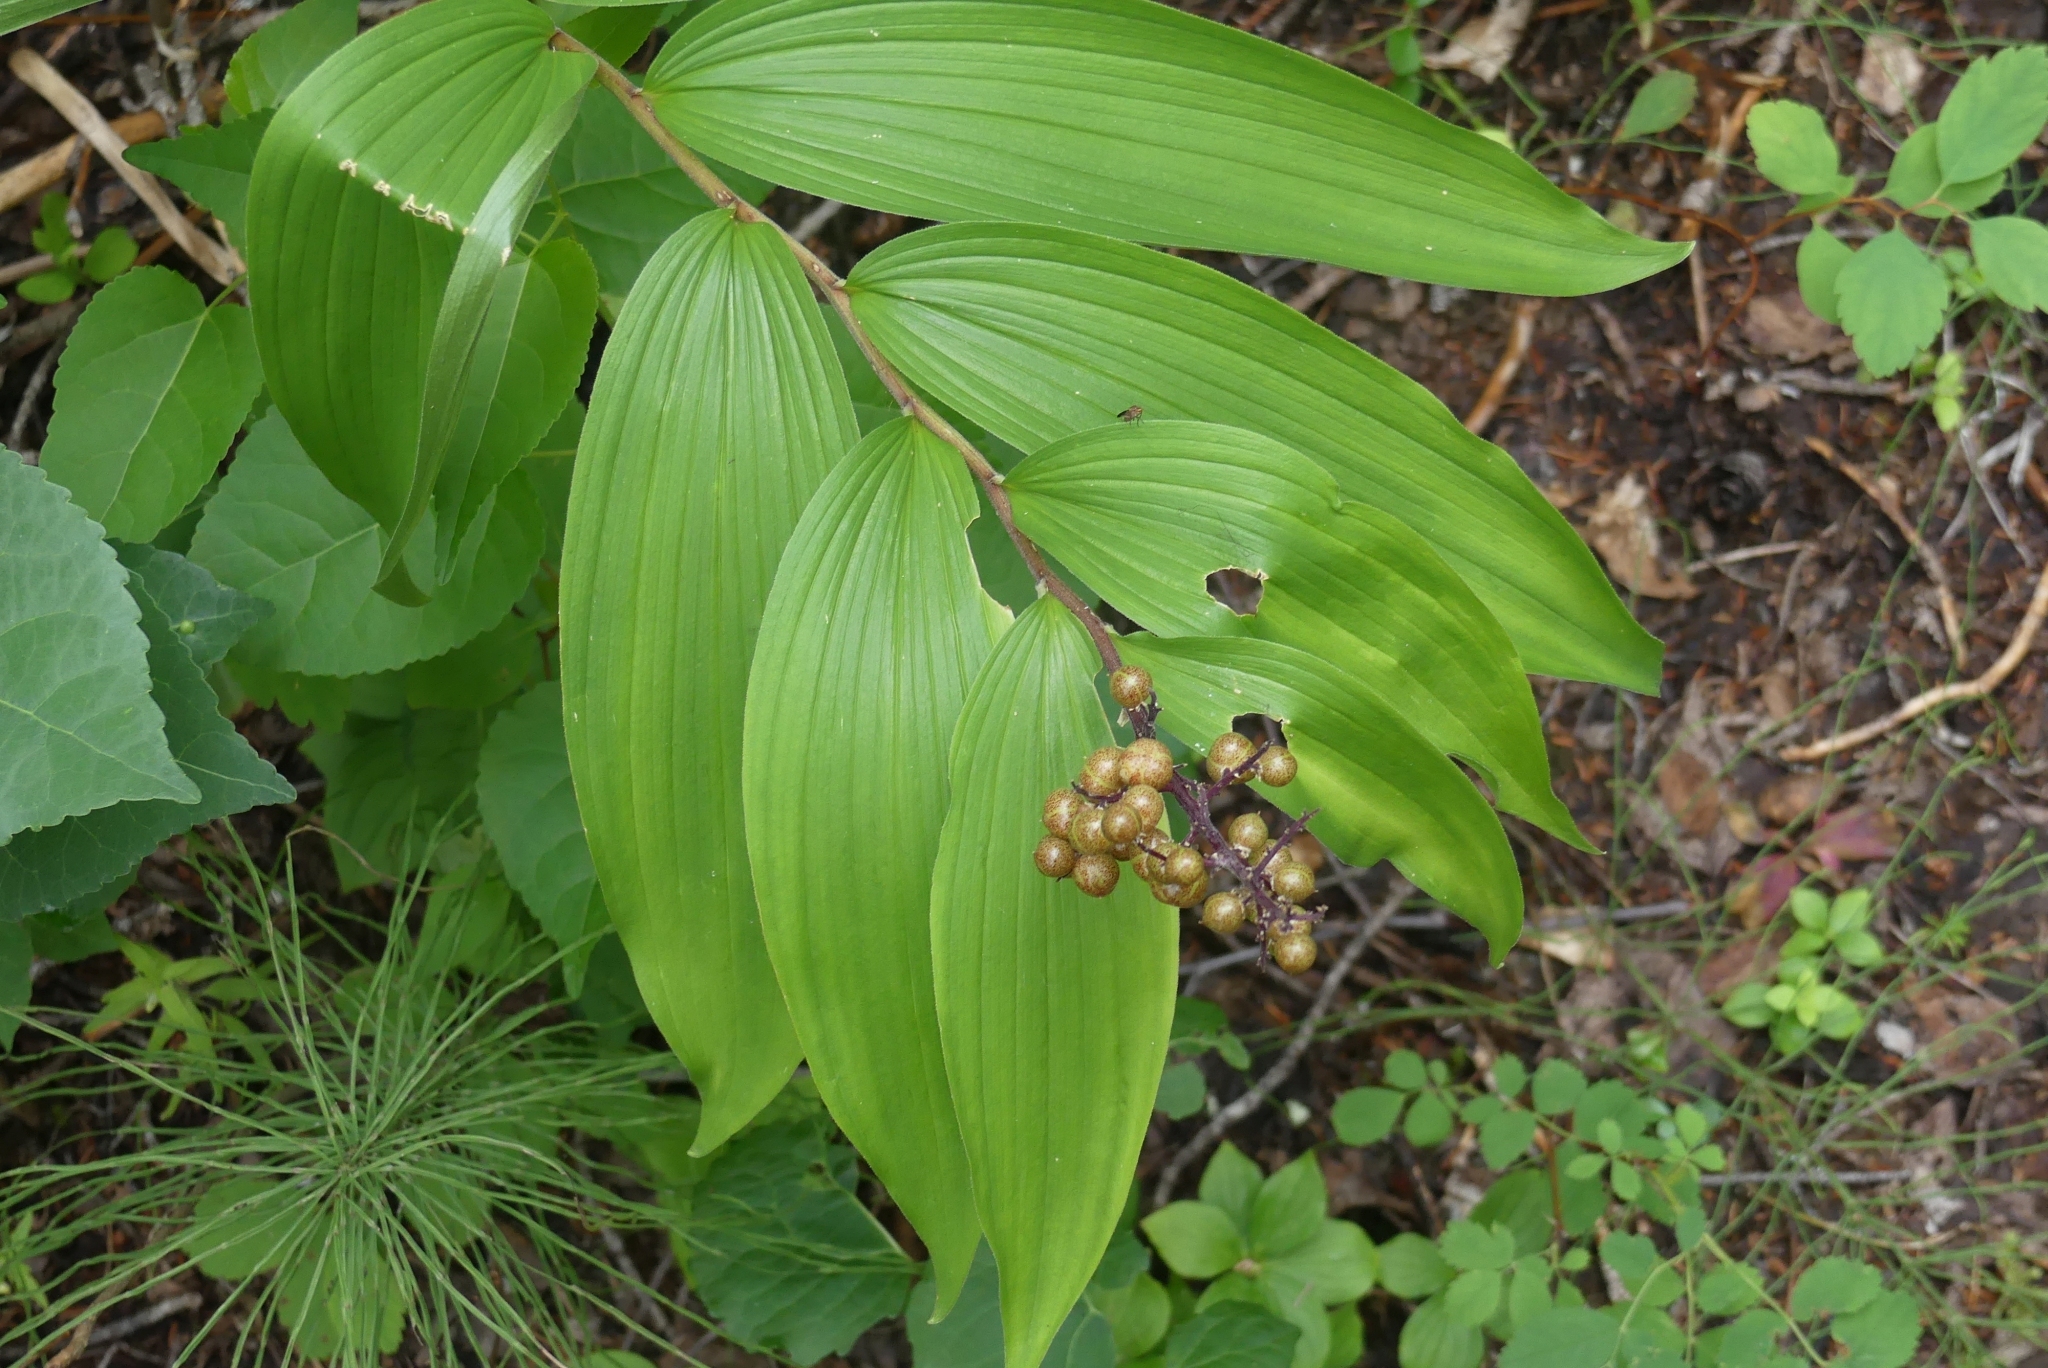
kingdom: Plantae
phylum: Tracheophyta
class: Liliopsida
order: Asparagales
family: Asparagaceae
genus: Maianthemum
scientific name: Maianthemum racemosum
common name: False spikenard
